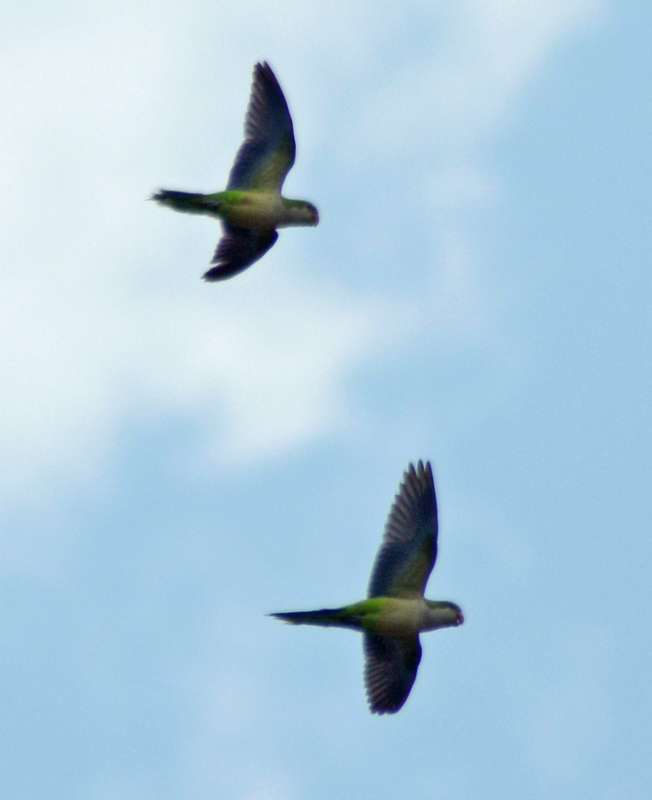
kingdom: Animalia
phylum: Chordata
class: Aves
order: Psittaciformes
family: Psittacidae
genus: Myiopsitta
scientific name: Myiopsitta monachus
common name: Monk parakeet
